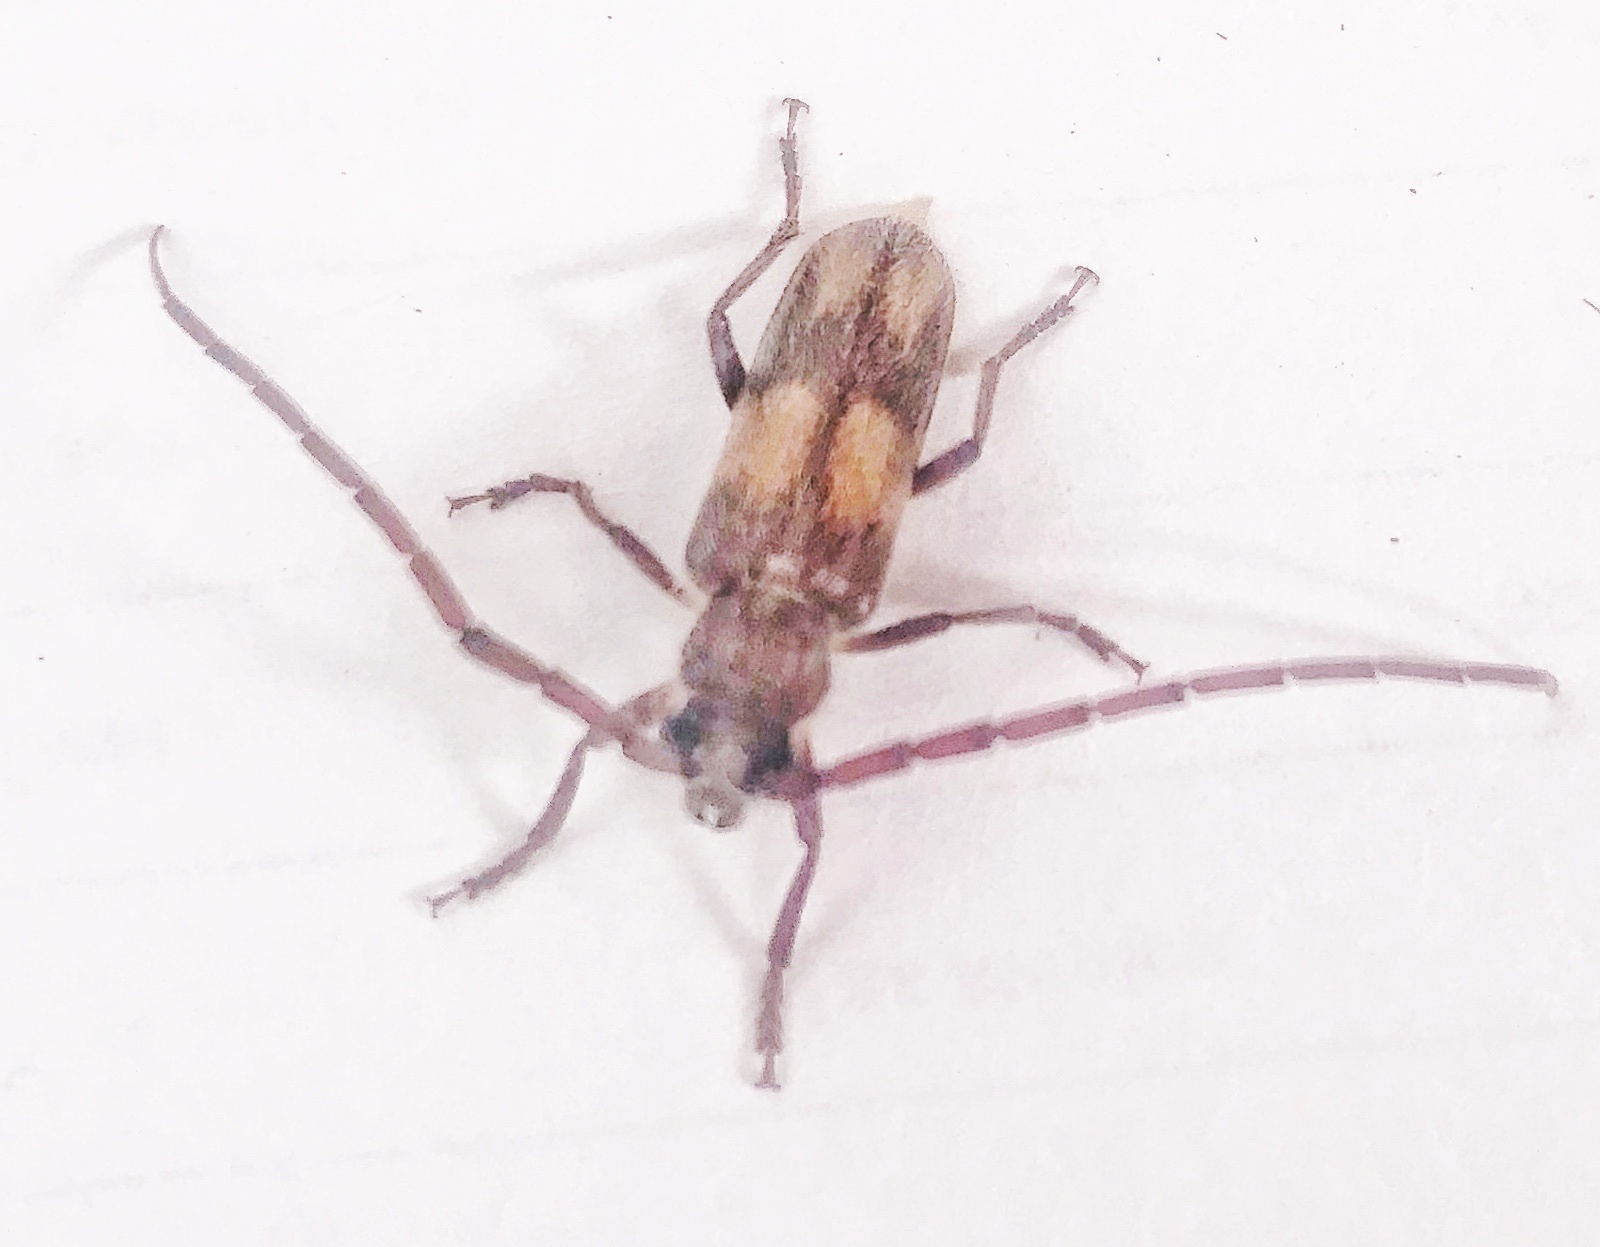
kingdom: Animalia
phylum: Arthropoda
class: Insecta
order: Coleoptera
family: Cerambycidae
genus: Crinarnoldius
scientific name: Crinarnoldius maculatus
